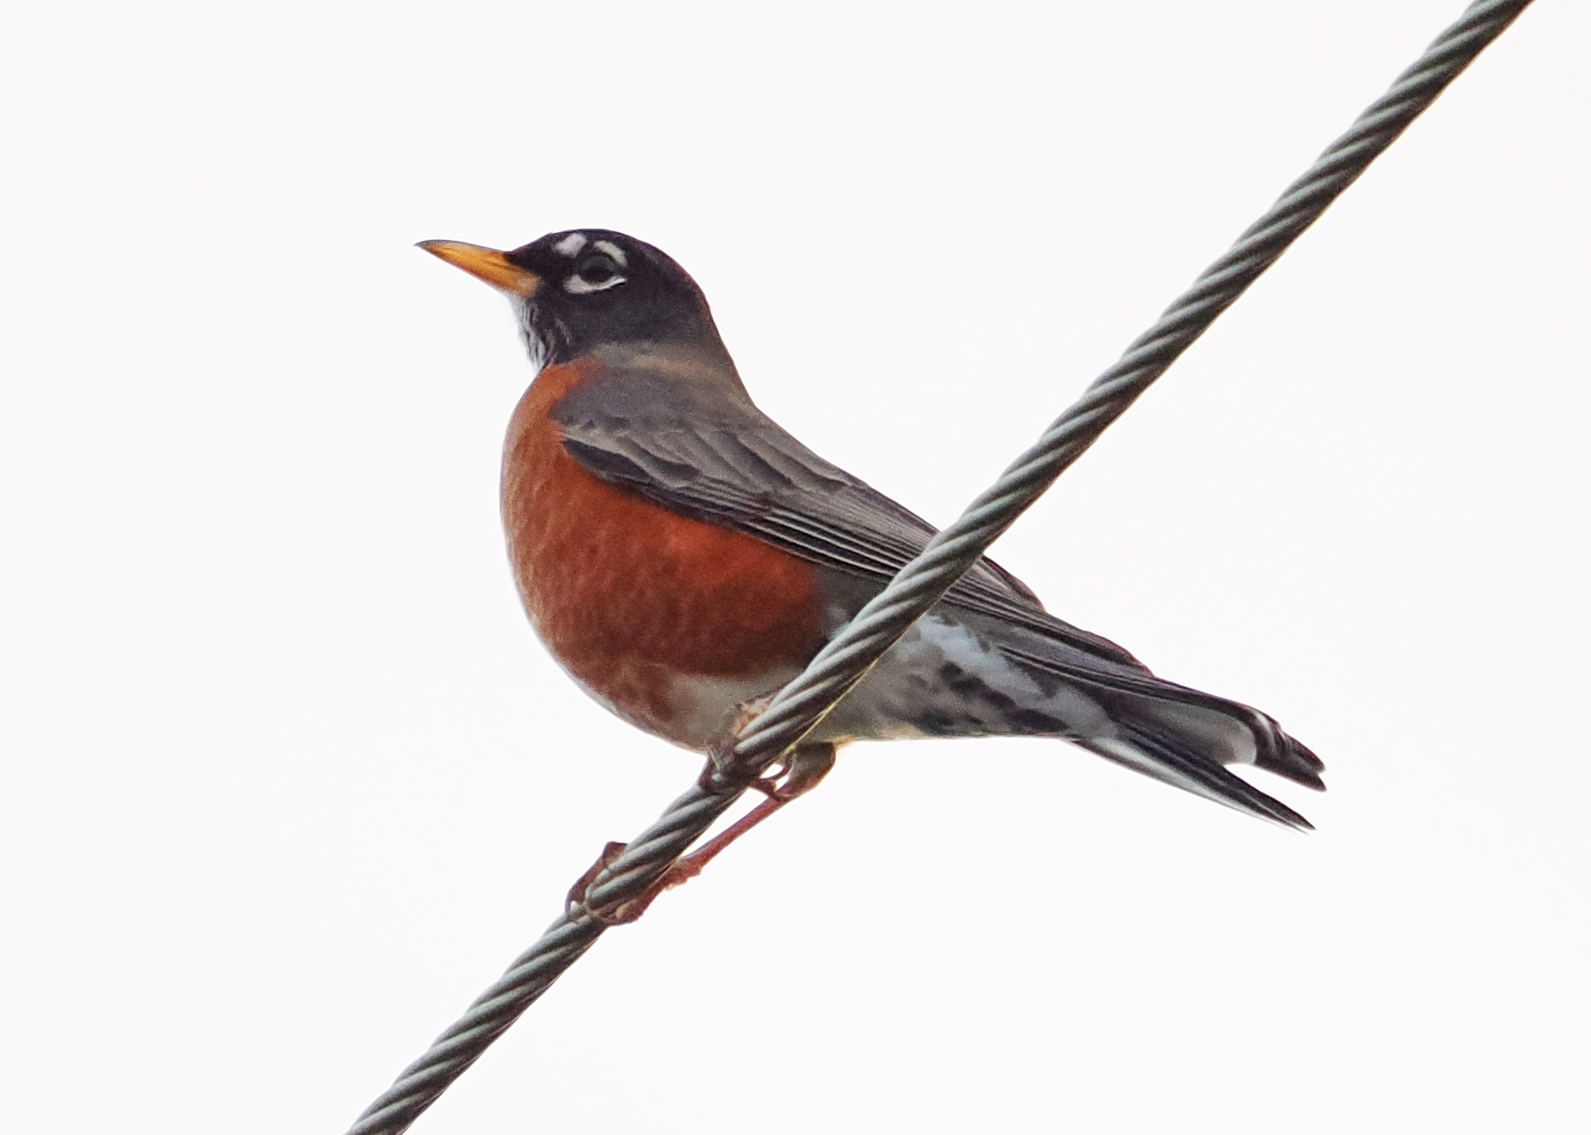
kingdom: Animalia
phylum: Chordata
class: Aves
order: Passeriformes
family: Turdidae
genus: Turdus
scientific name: Turdus migratorius
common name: American robin
